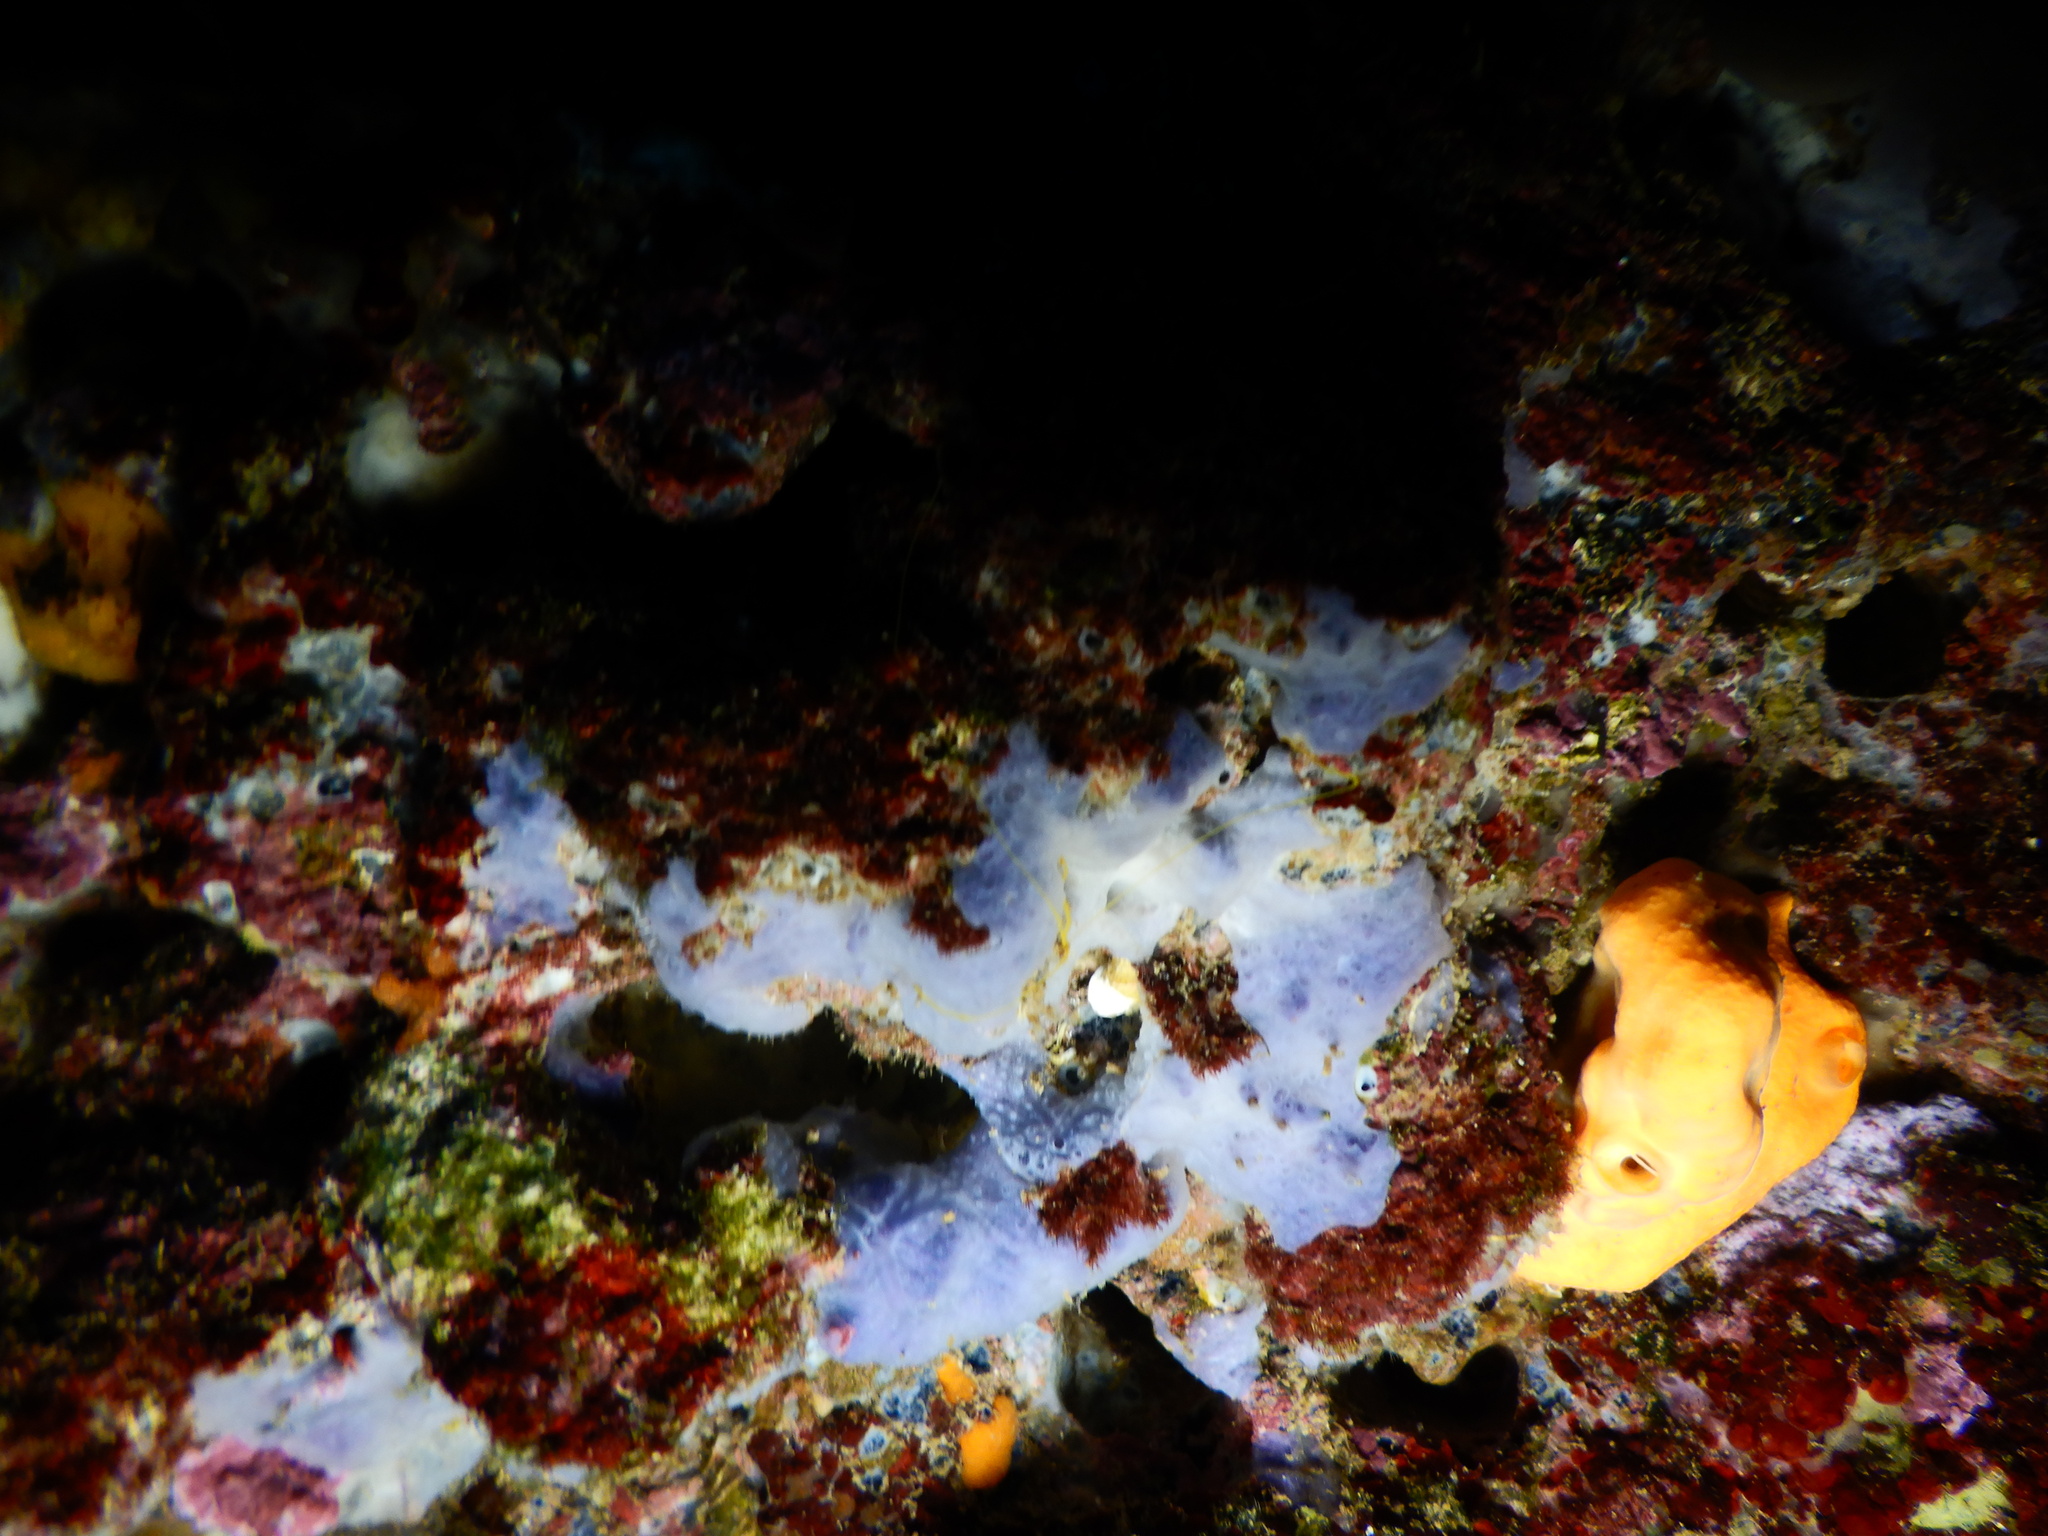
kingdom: Animalia
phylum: Porifera
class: Demospongiae
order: Poecilosclerida
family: Hymedesmiidae
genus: Phorbas
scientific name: Phorbas tenacior
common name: Bluish encrusting sponge
